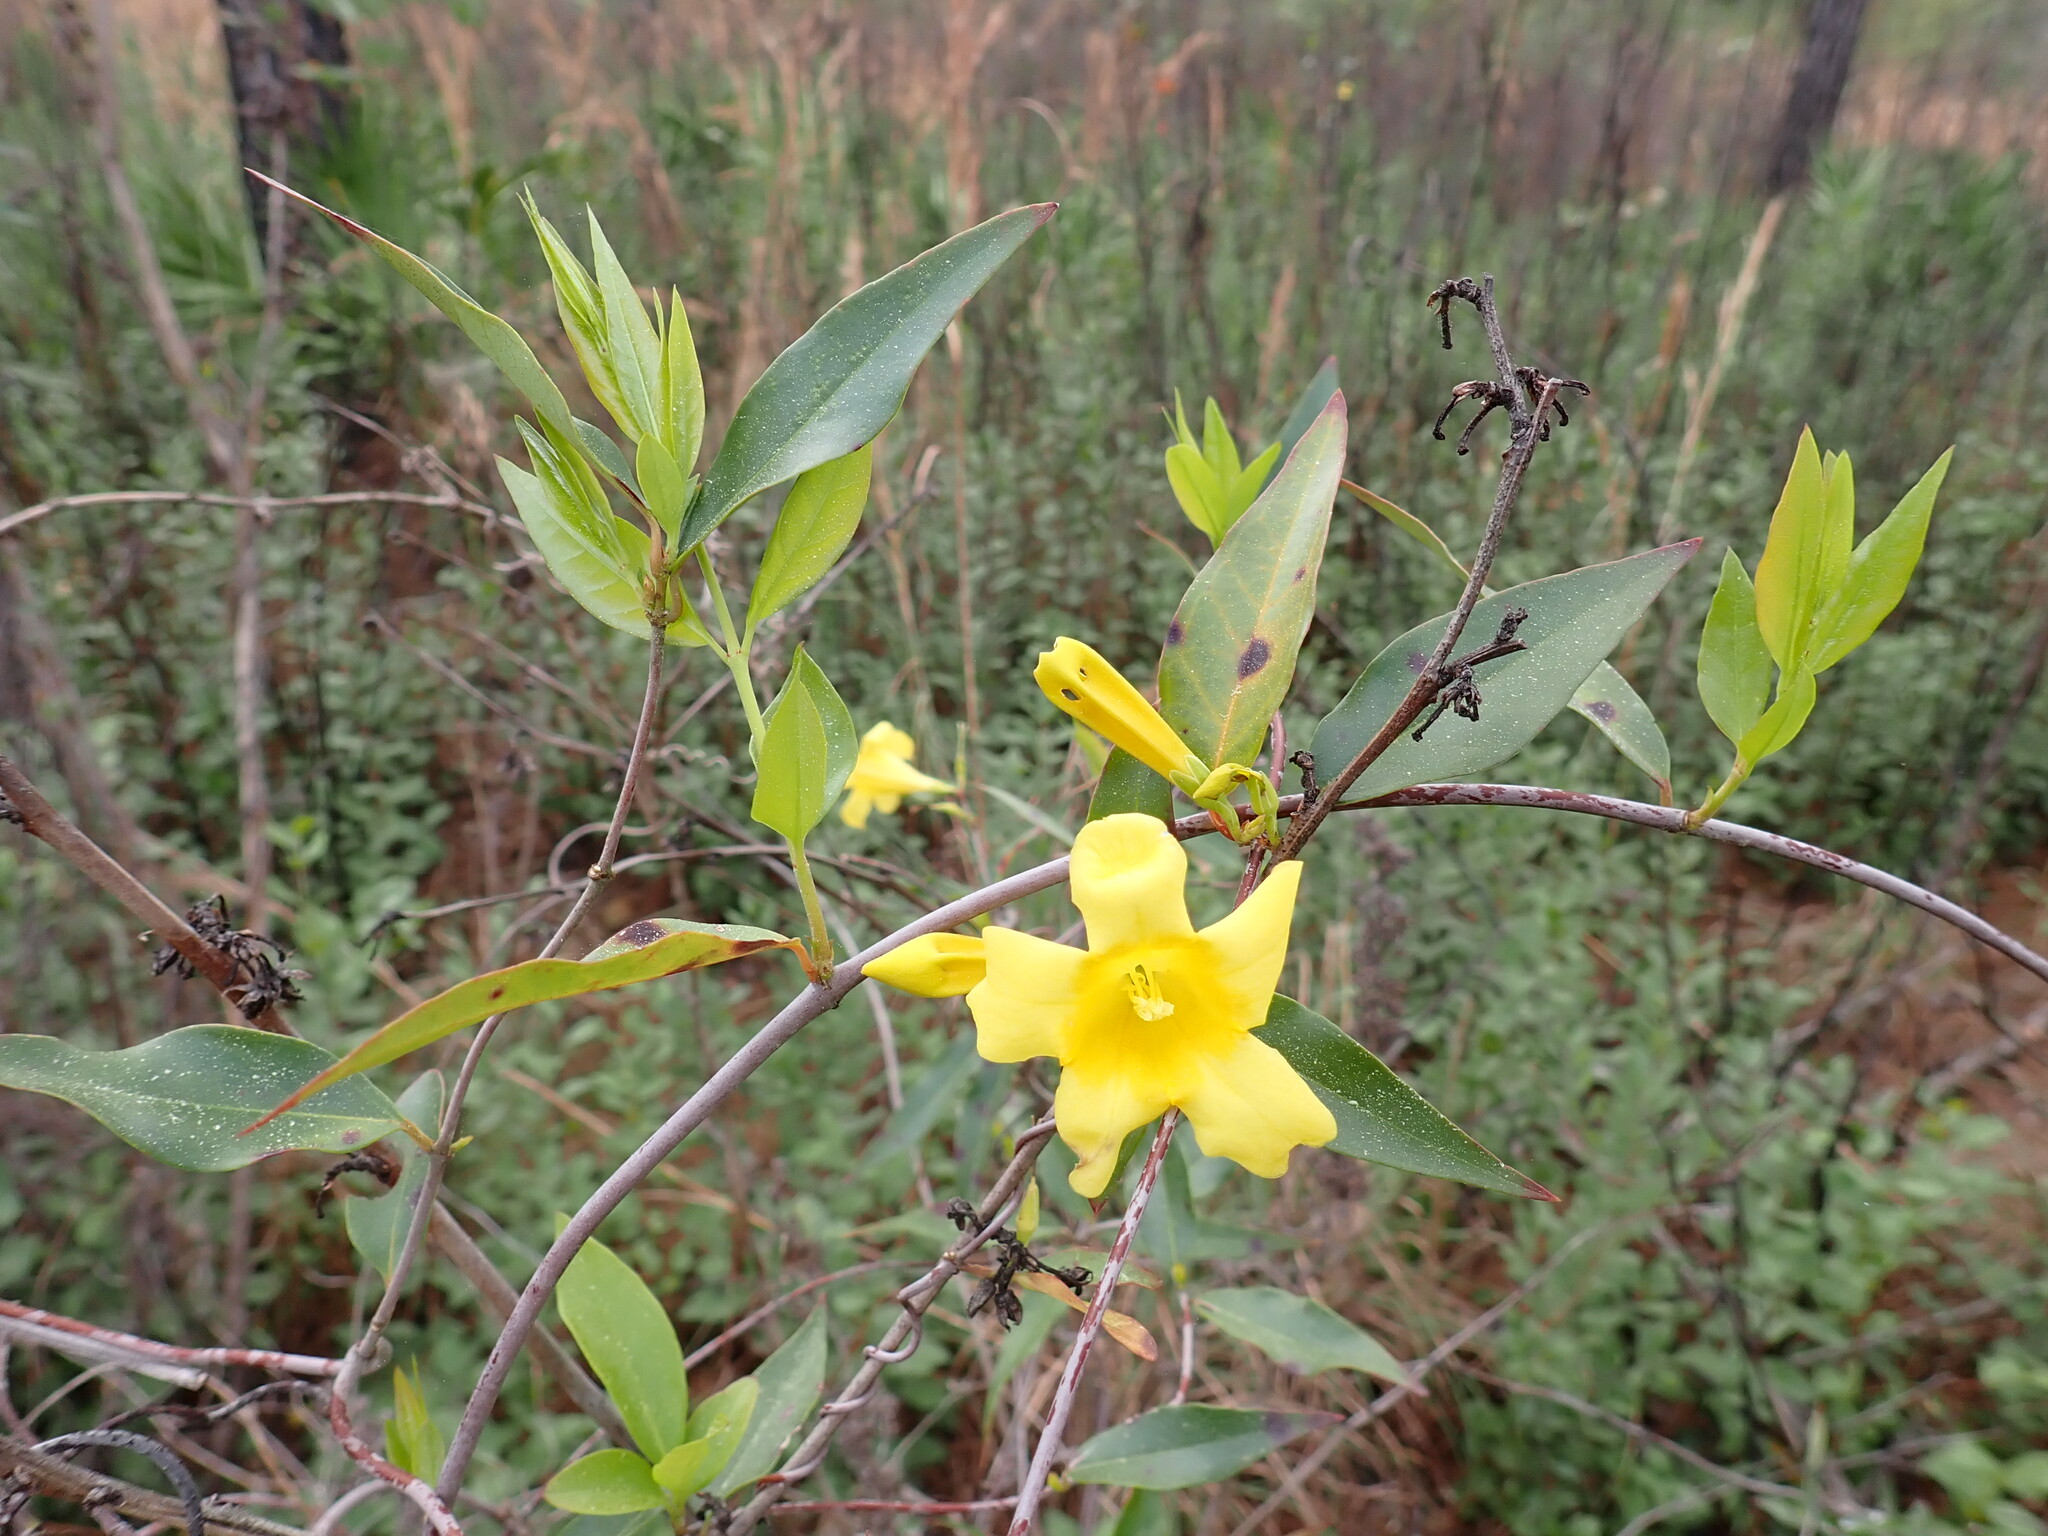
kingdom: Plantae
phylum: Tracheophyta
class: Magnoliopsida
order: Gentianales
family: Gelsemiaceae
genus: Gelsemium
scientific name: Gelsemium sempervirens
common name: Carolina-jasmine
